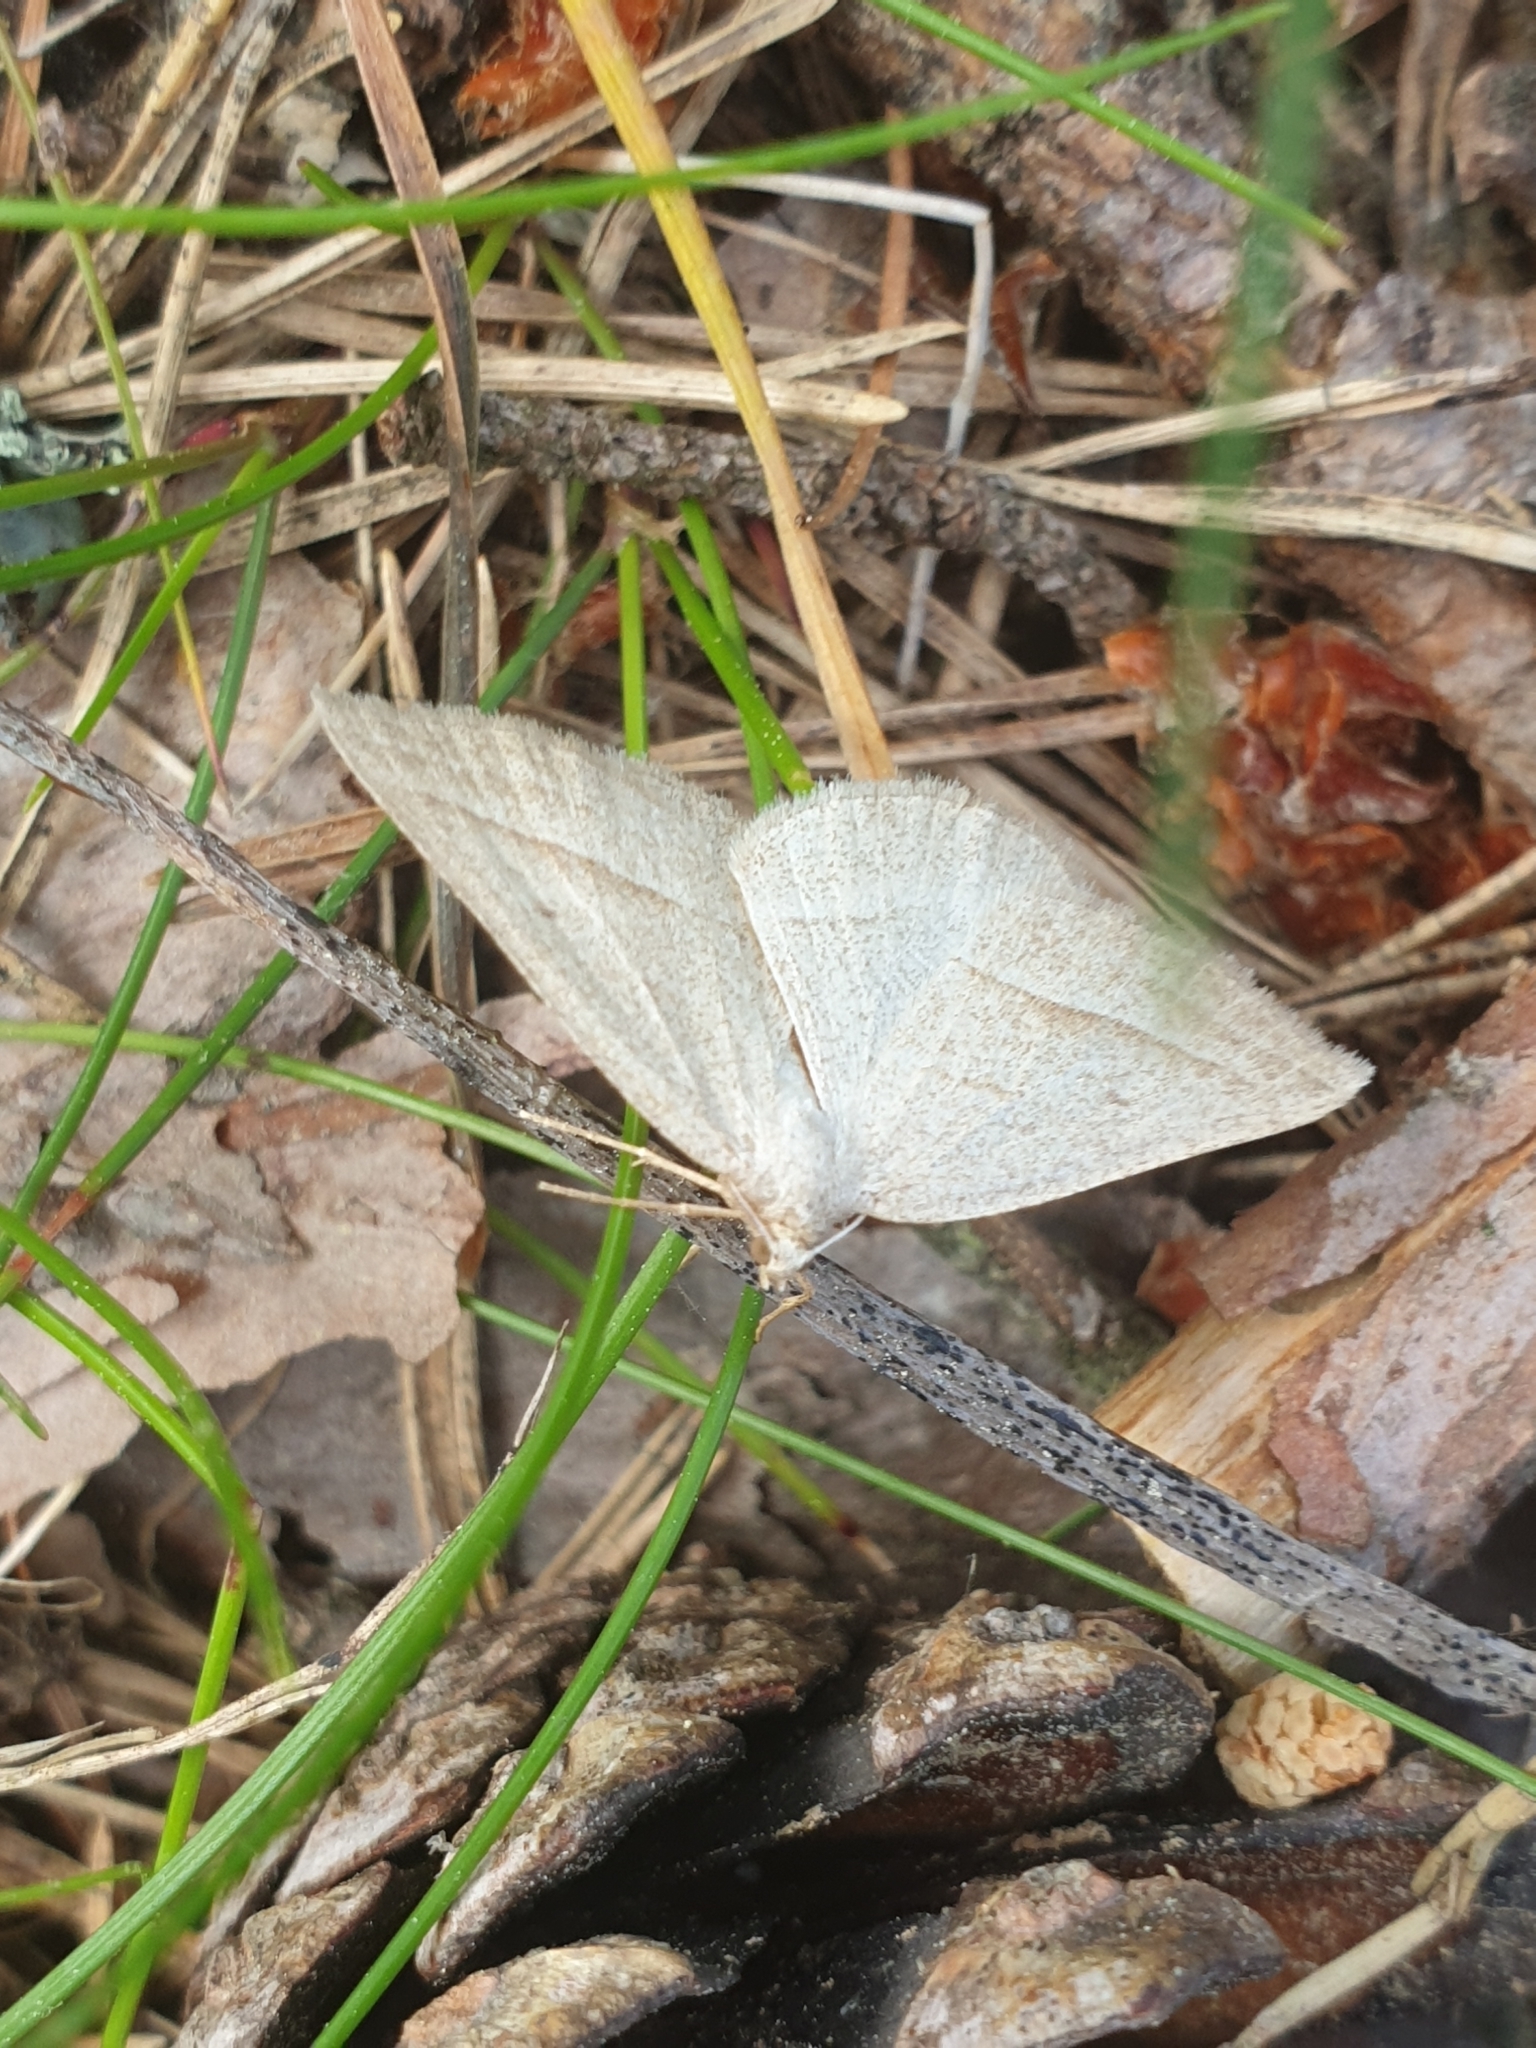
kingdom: Animalia
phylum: Arthropoda
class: Insecta
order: Lepidoptera
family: Pterophoridae
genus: Pterophorus
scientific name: Pterophorus Petrophora chlorosata
